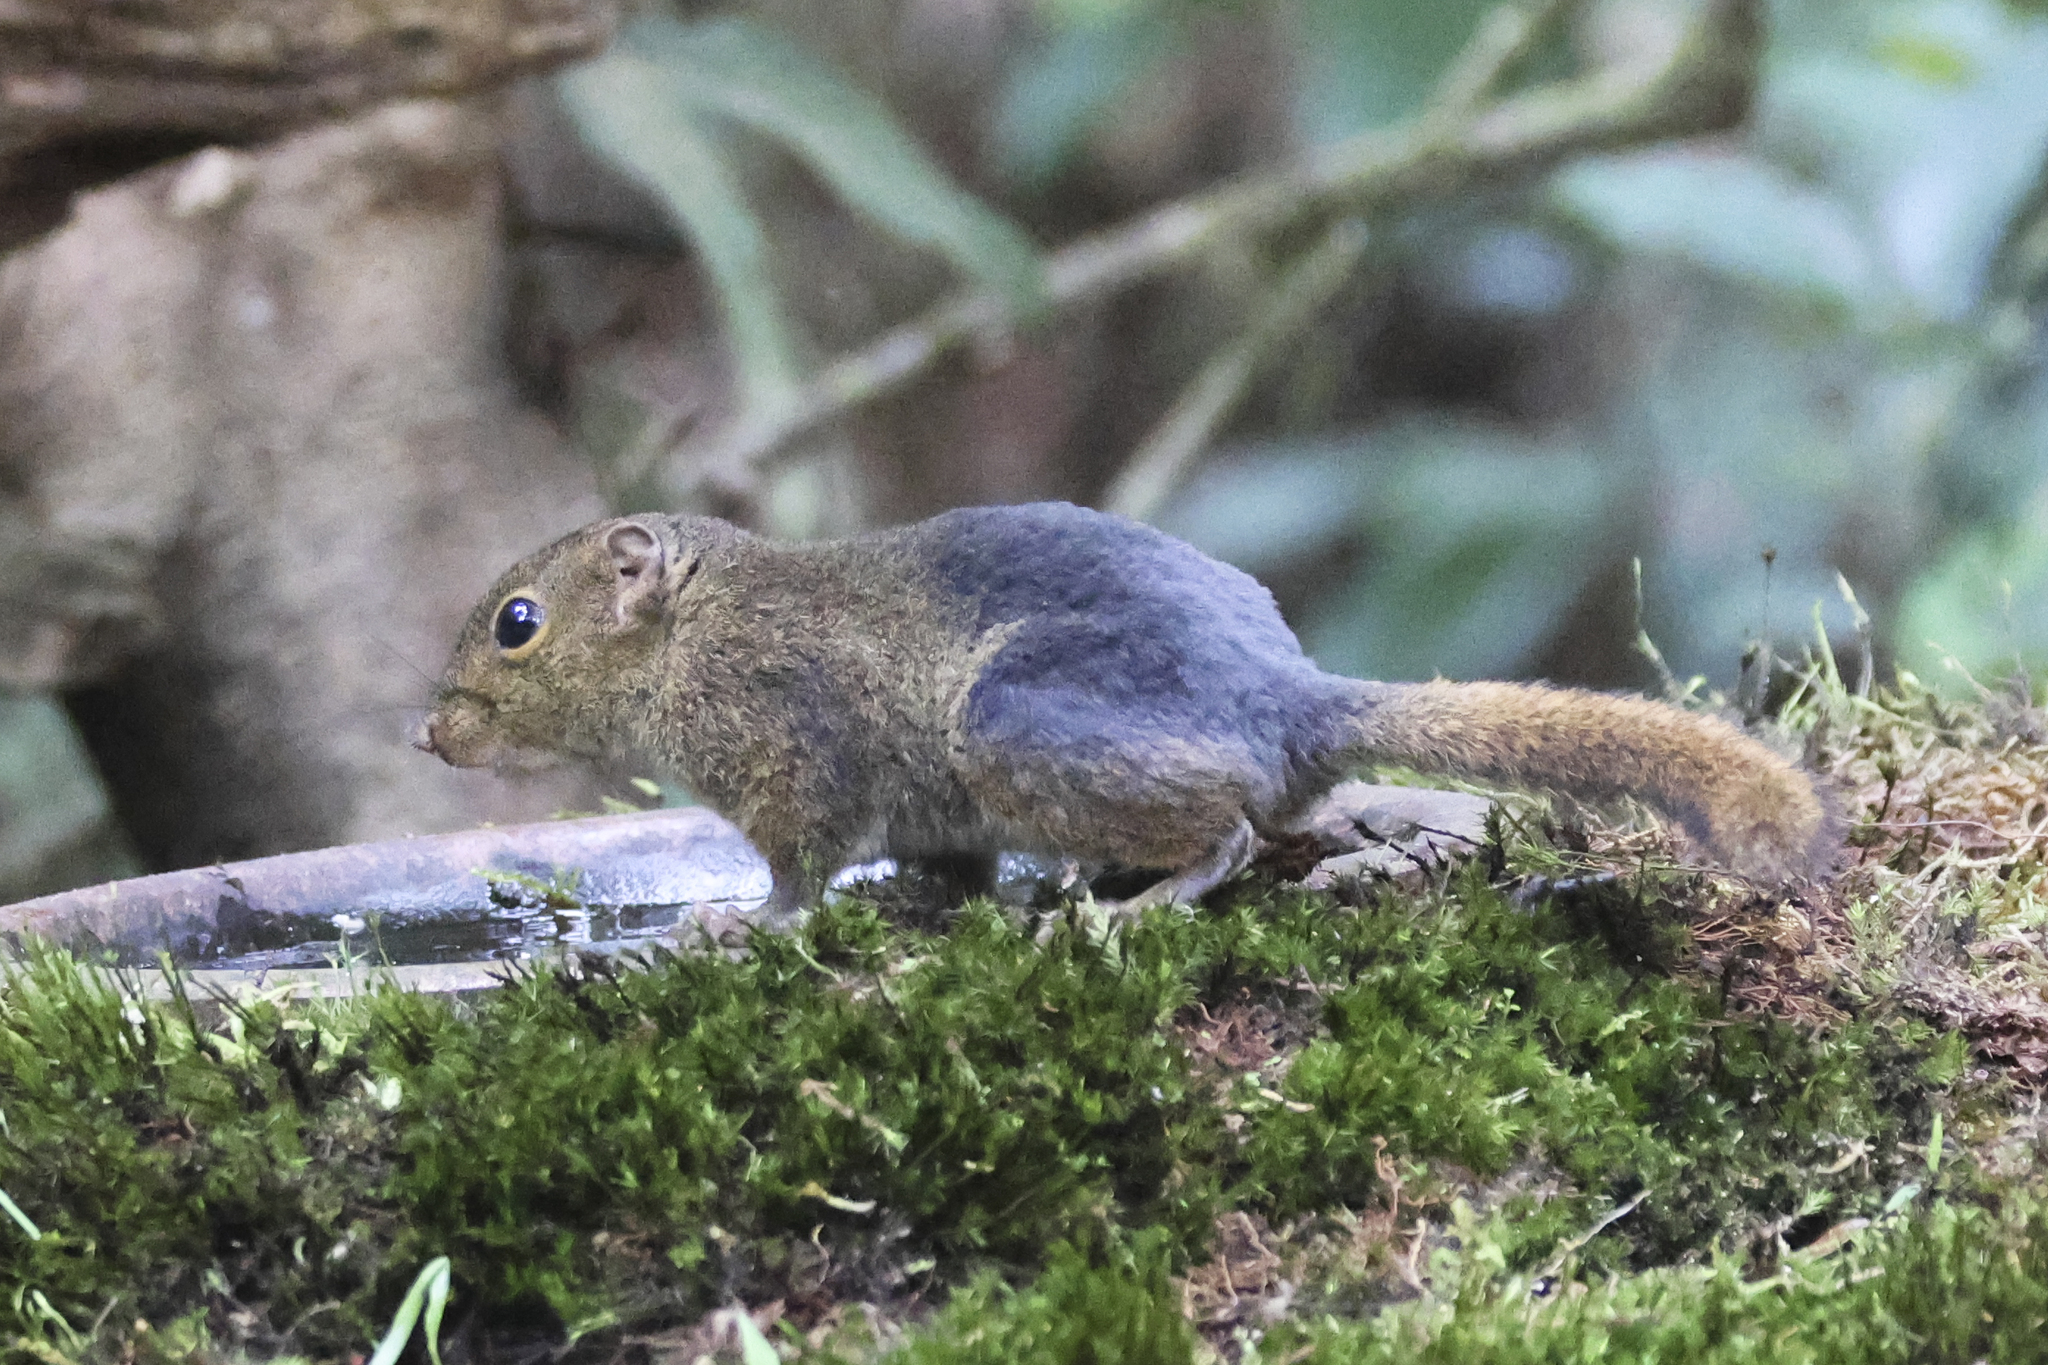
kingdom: Animalia
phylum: Chordata
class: Mammalia
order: Rodentia
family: Sciuridae
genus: Sundasciurus
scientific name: Sundasciurus everetti
